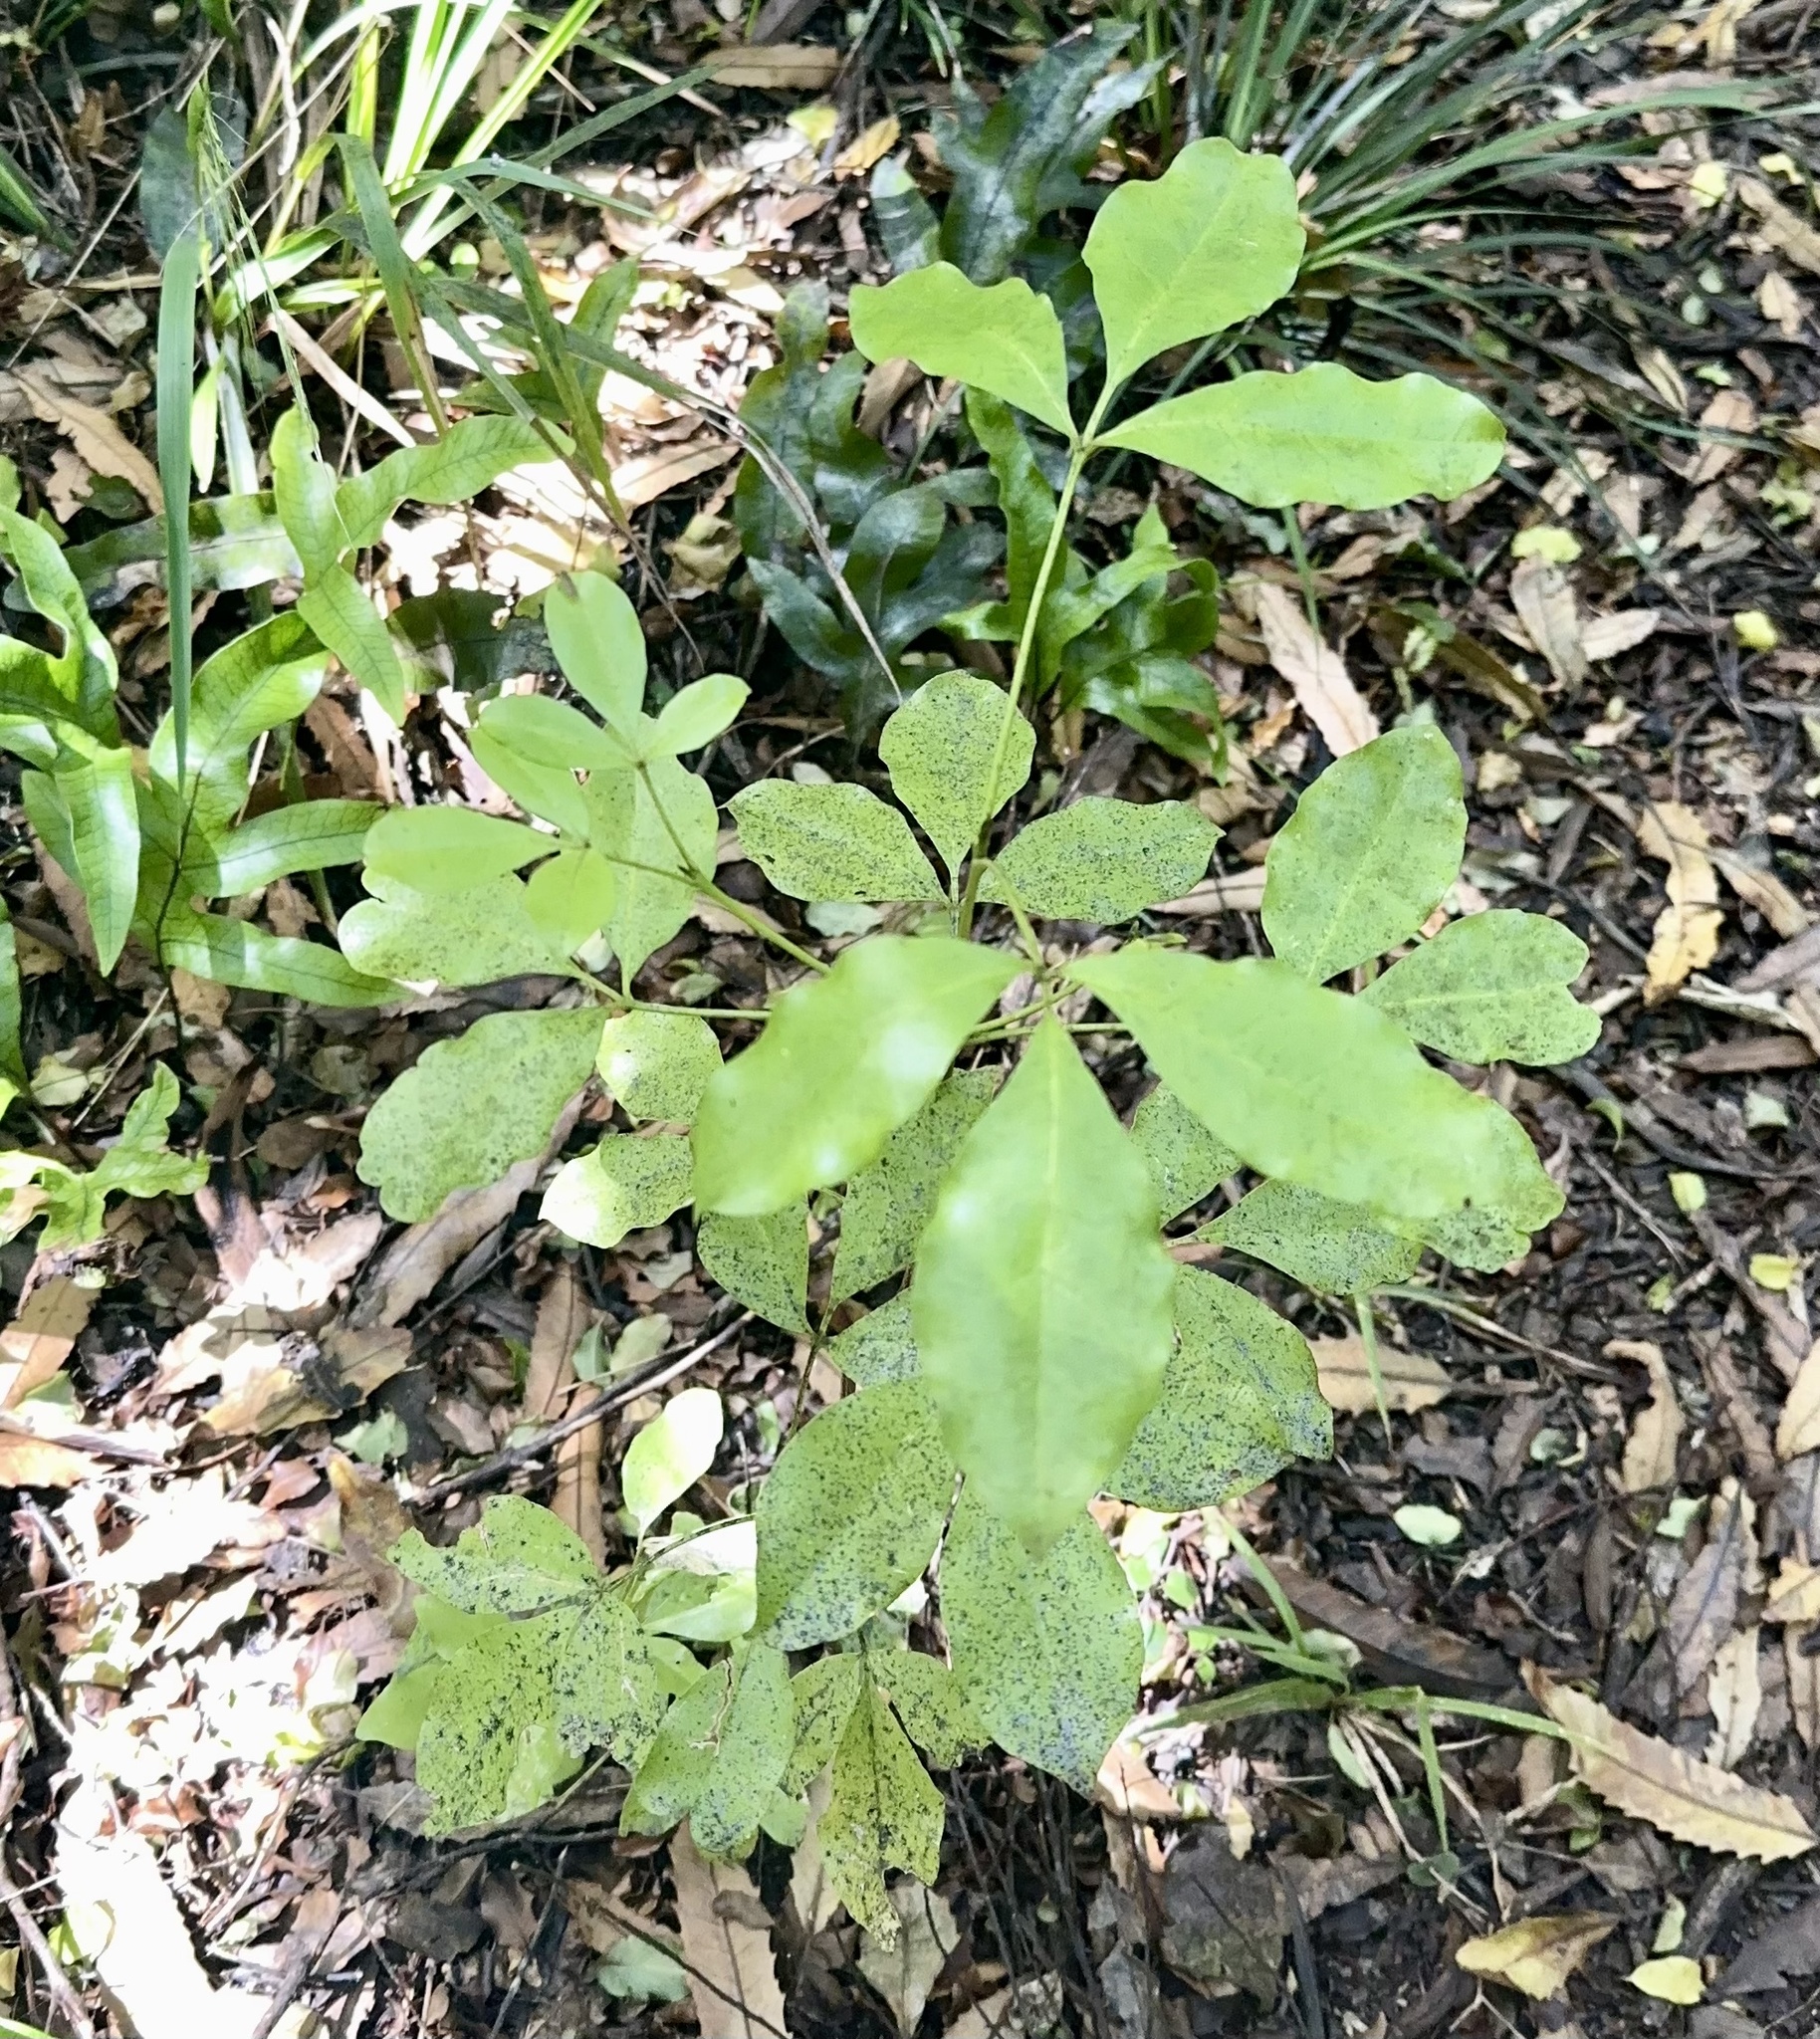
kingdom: Plantae
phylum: Tracheophyta
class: Magnoliopsida
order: Sapindales
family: Rutaceae
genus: Melicope
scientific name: Melicope ternata
